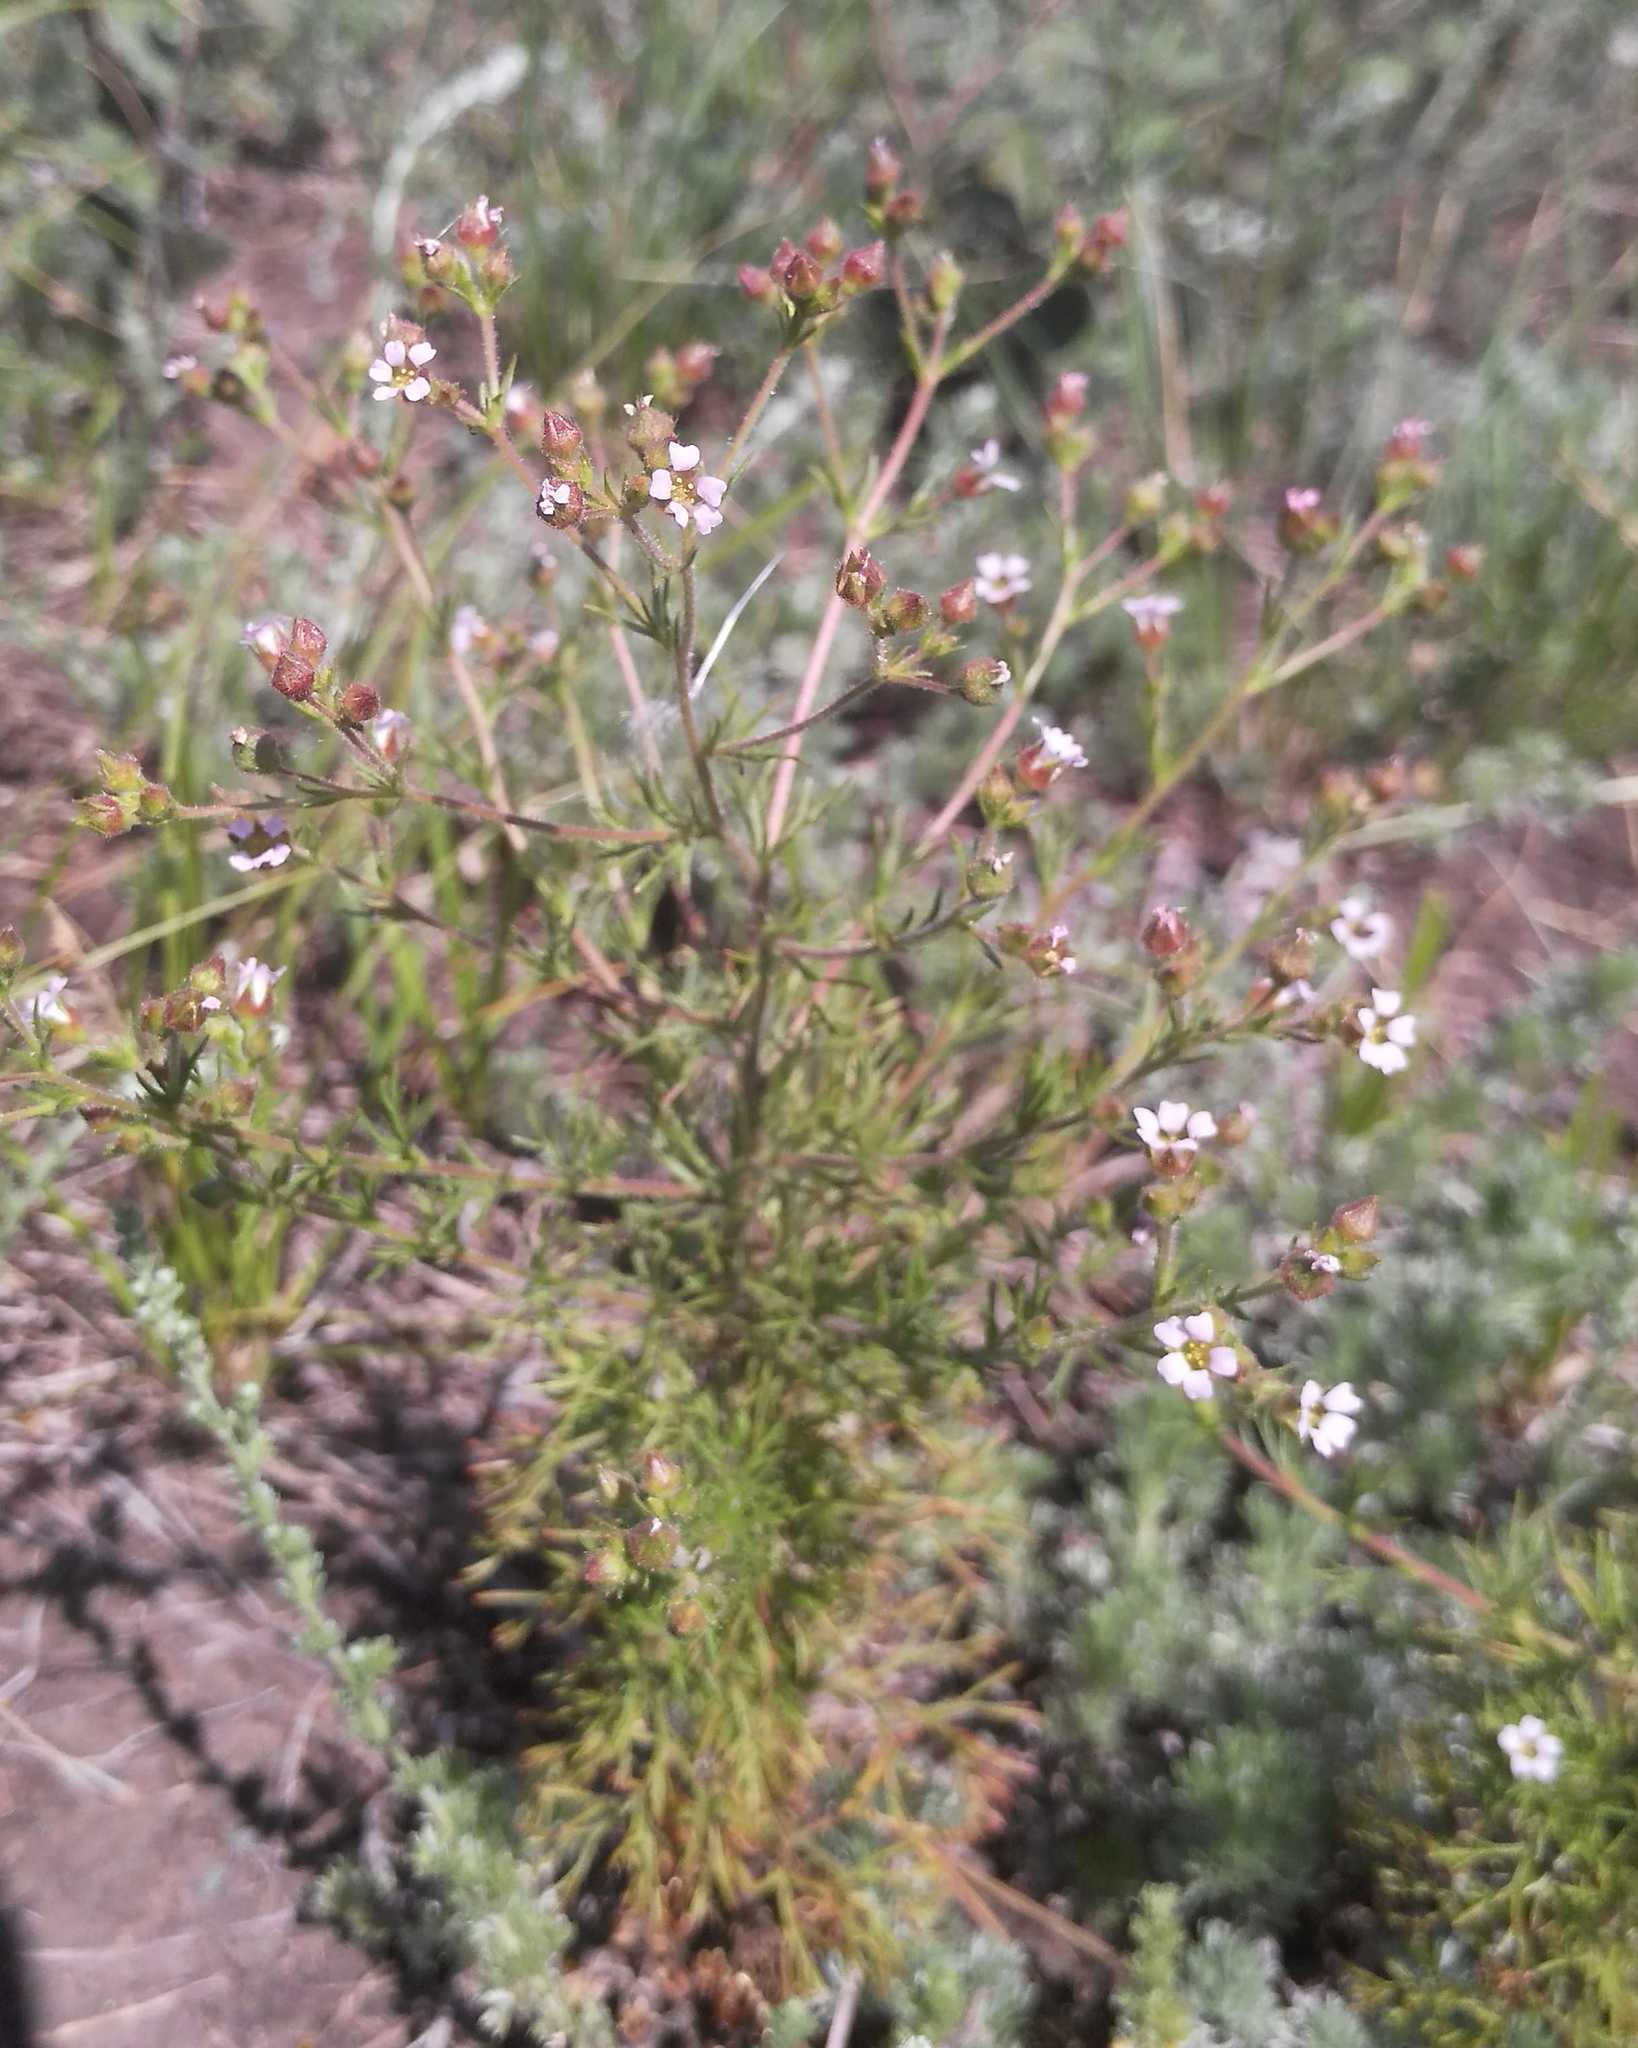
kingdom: Plantae
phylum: Tracheophyta
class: Magnoliopsida
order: Rosales
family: Rosaceae
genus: Chamaerhodos
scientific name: Chamaerhodos erecta
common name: American chamaerhodos
